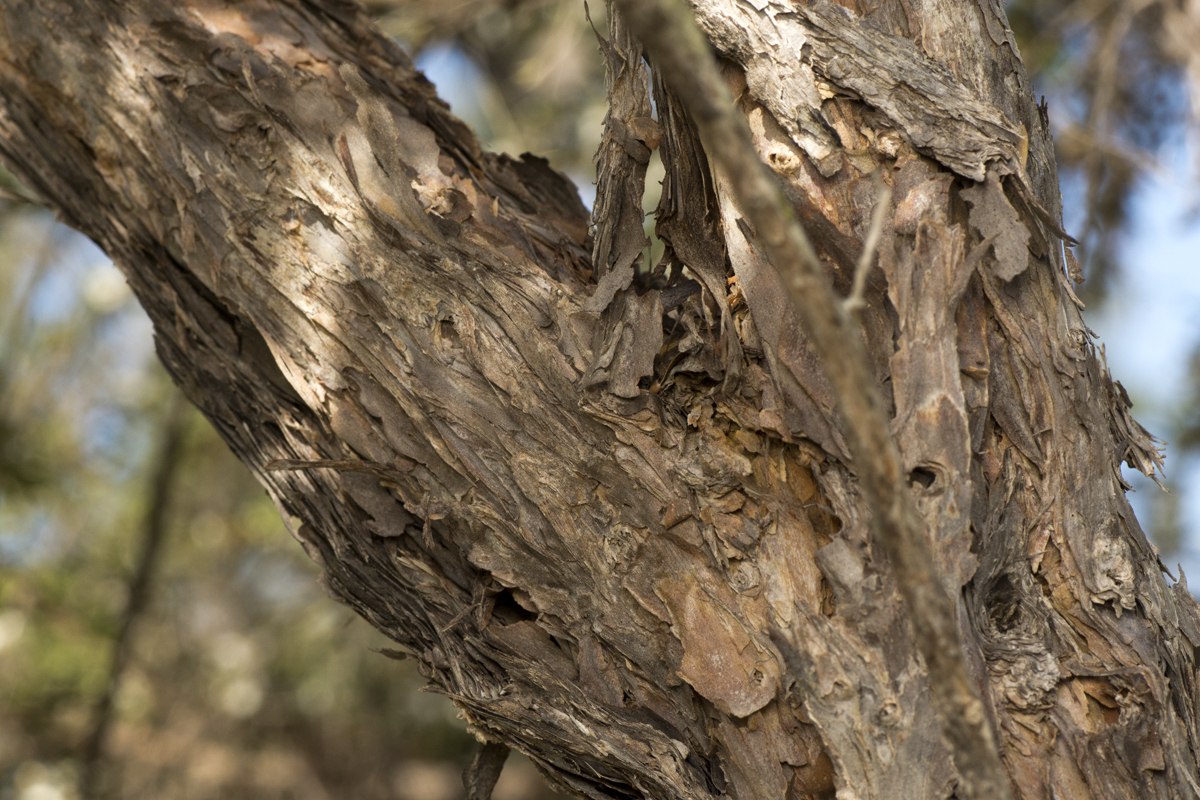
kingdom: Plantae
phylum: Tracheophyta
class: Magnoliopsida
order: Myrtales
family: Myrtaceae
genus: Leptospermum
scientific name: Leptospermum trinervium
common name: Flaky-barked tea-tree
